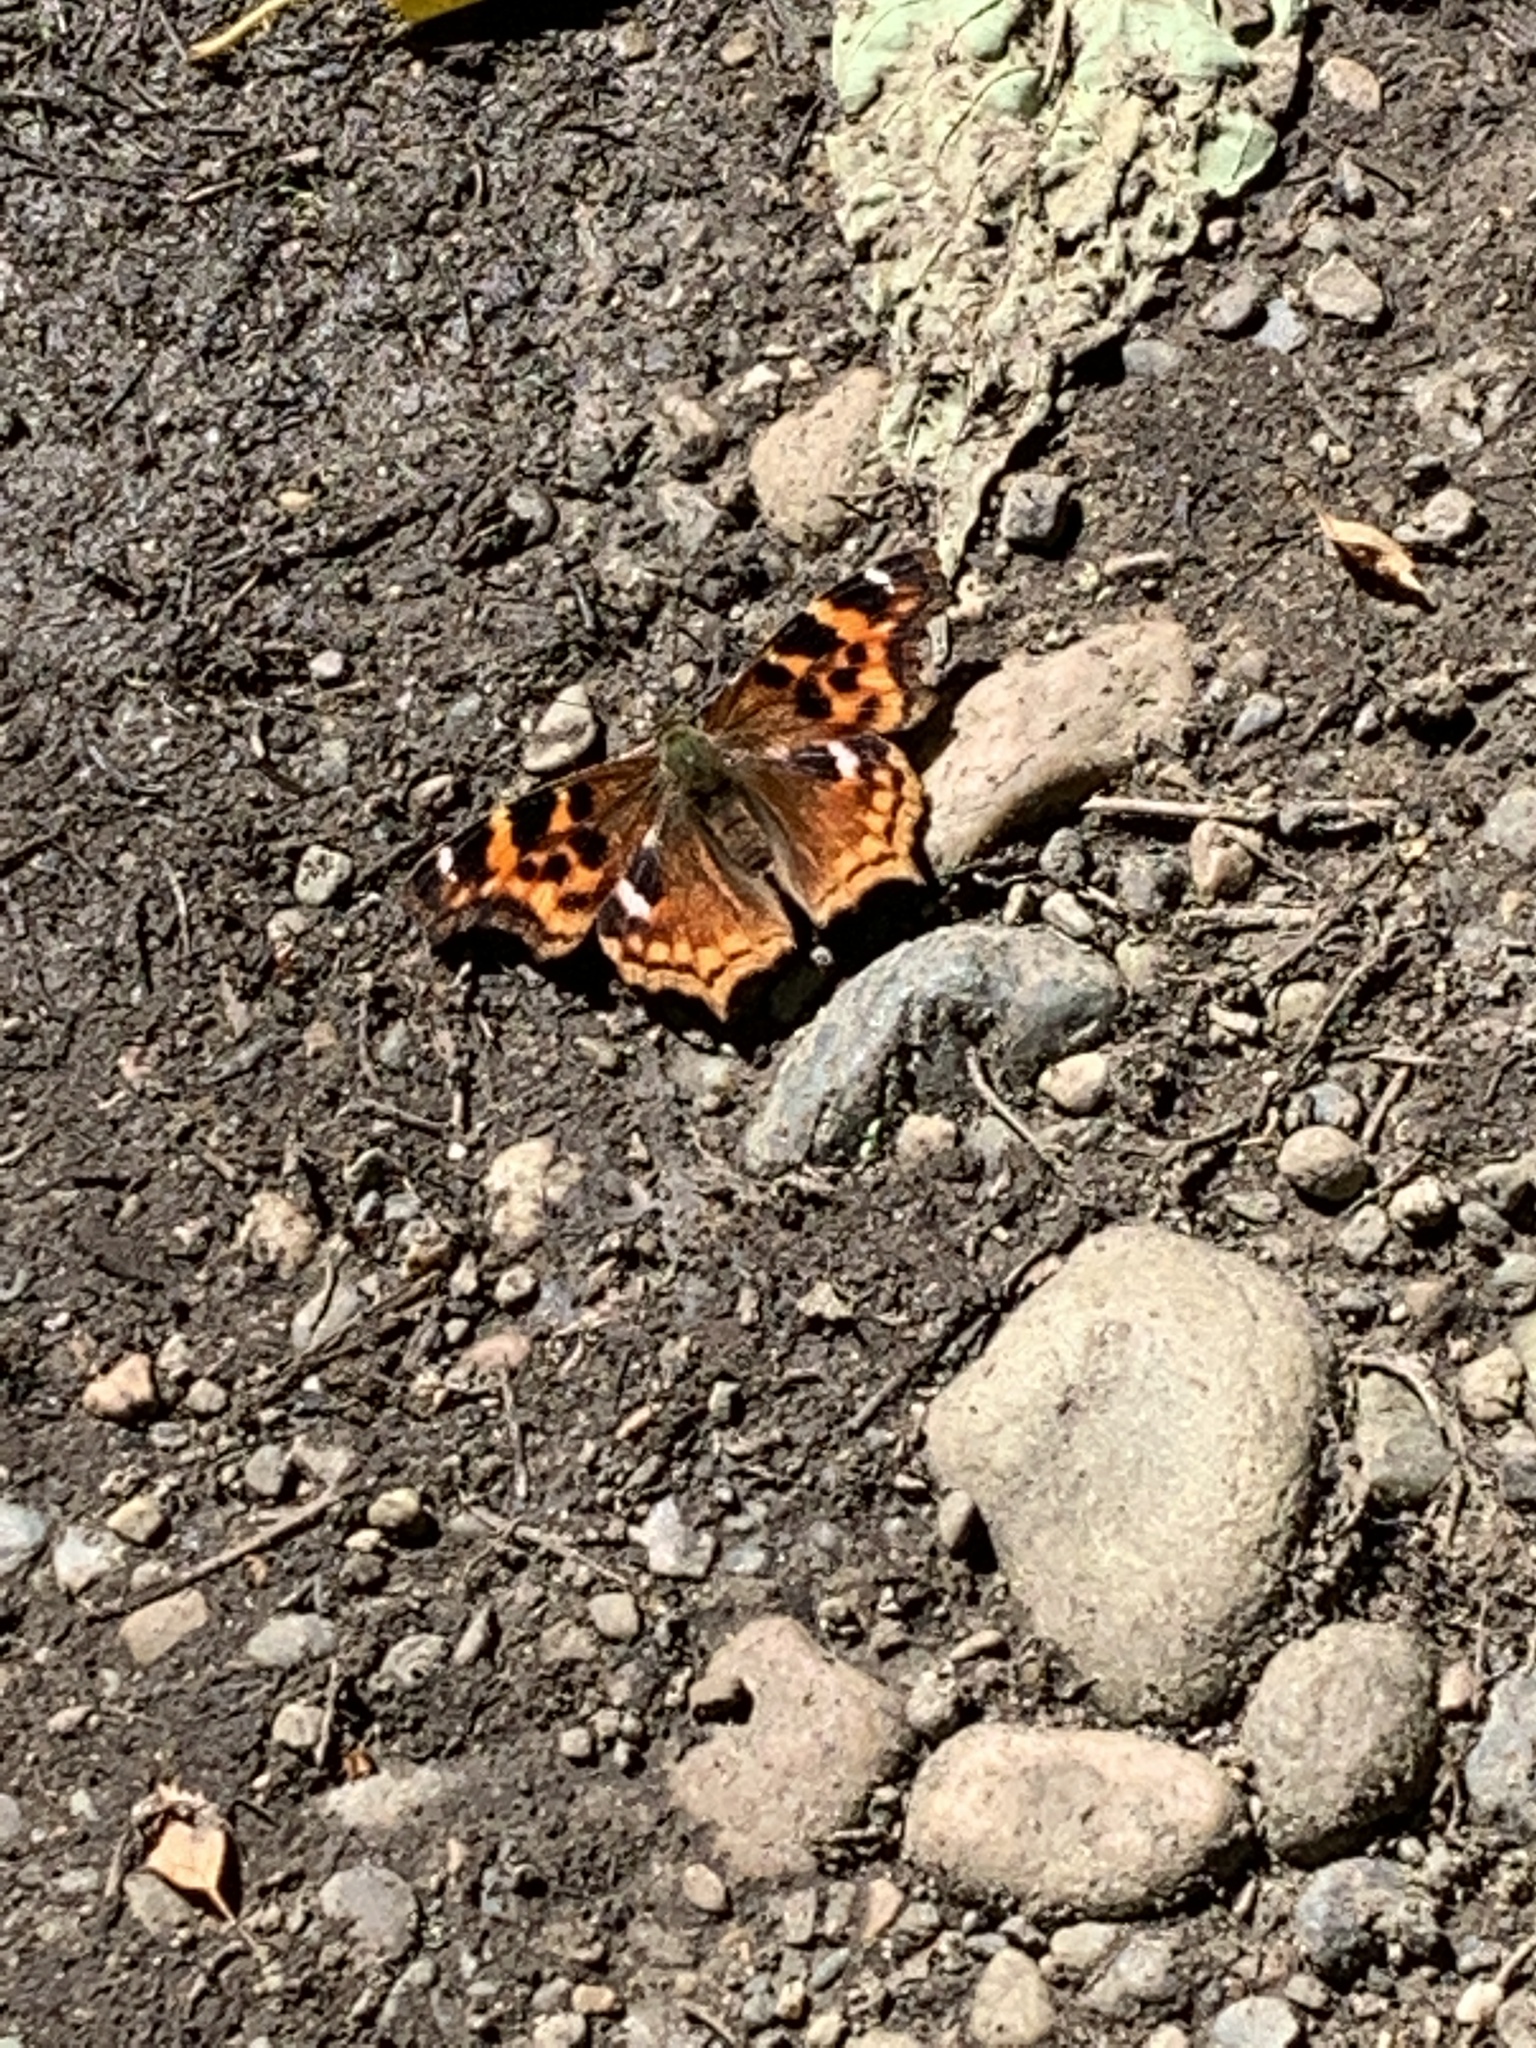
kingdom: Animalia
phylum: Arthropoda
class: Insecta
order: Lepidoptera
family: Nymphalidae
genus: Polygonia
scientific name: Polygonia vaualbum
